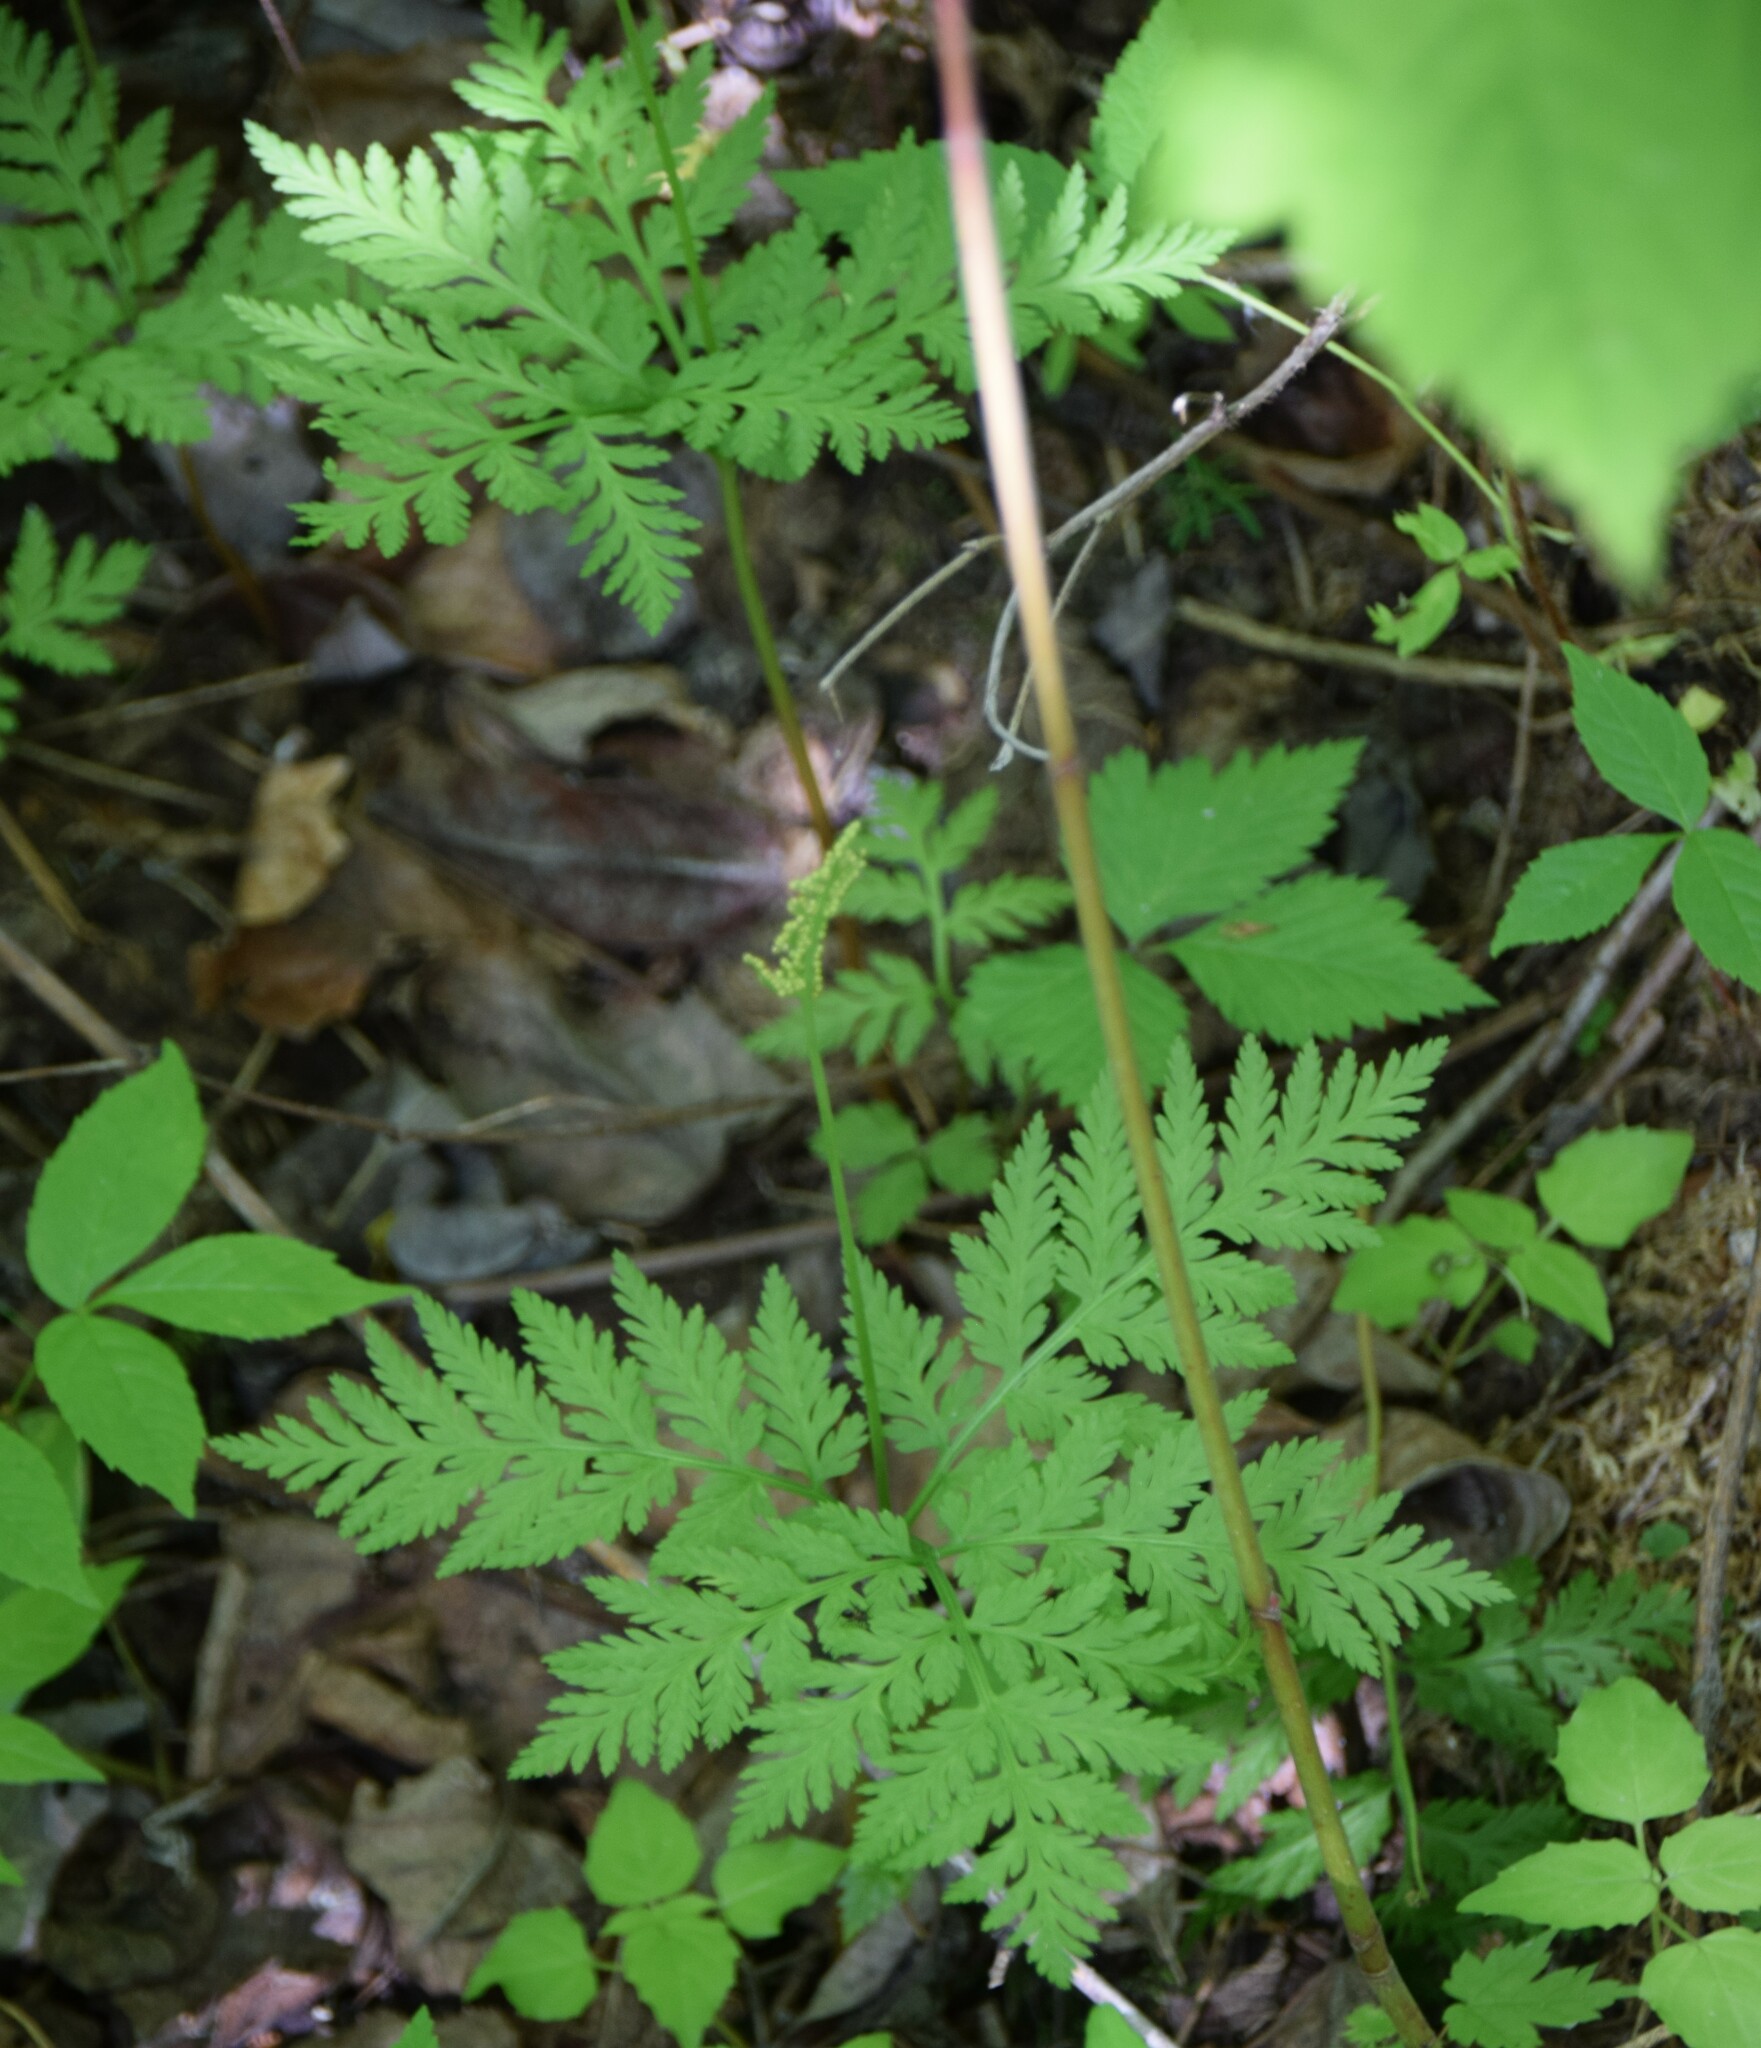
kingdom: Plantae
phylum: Tracheophyta
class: Polypodiopsida
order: Ophioglossales
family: Ophioglossaceae
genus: Botrypus
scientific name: Botrypus virginianus
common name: Common grapefern
